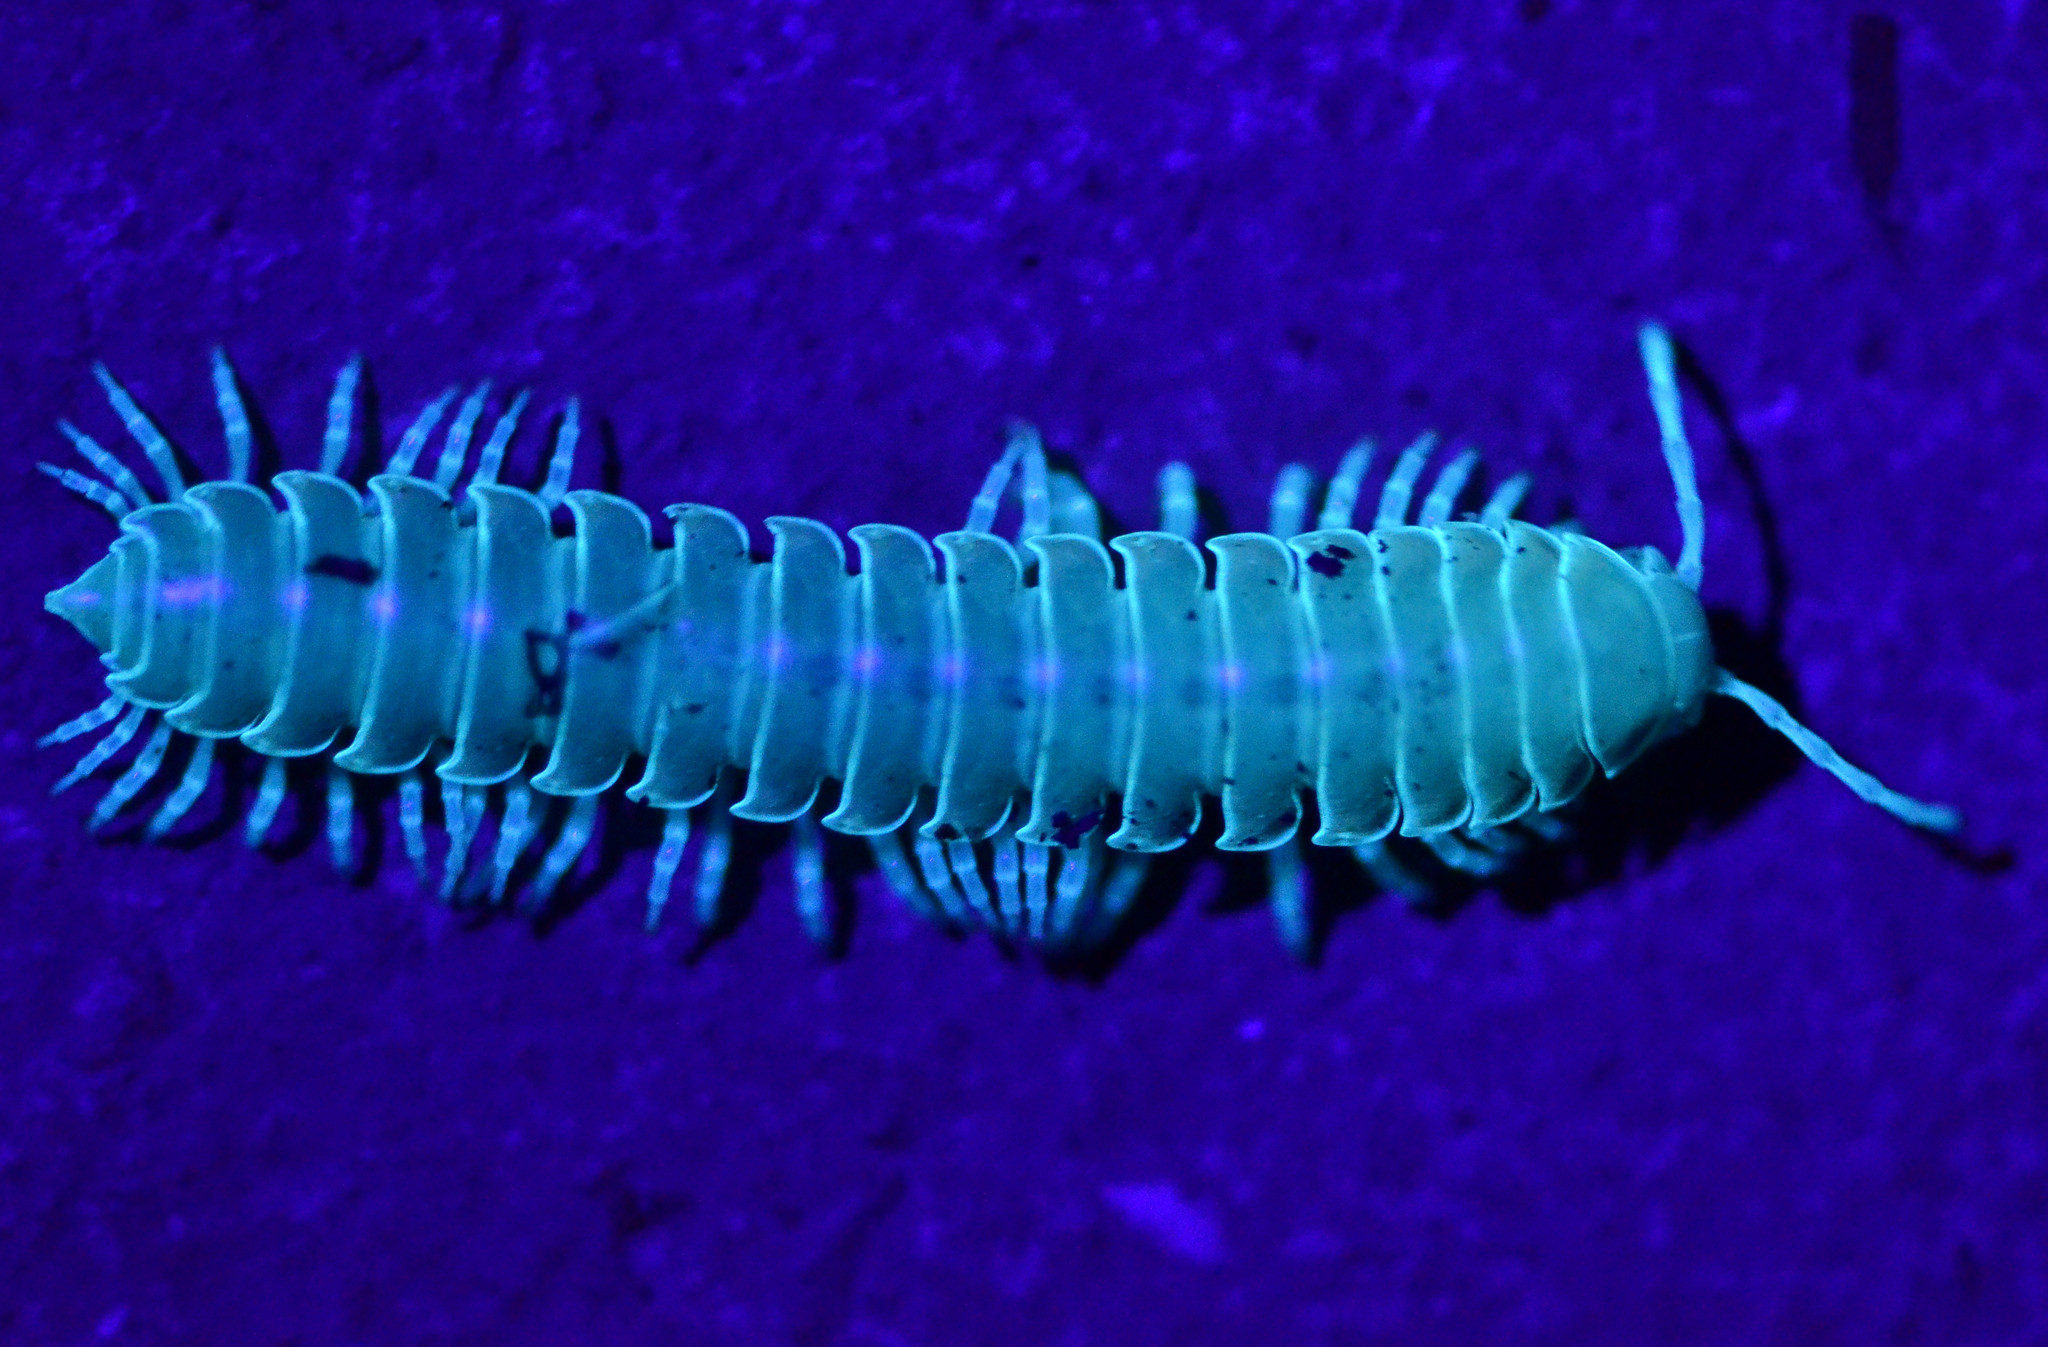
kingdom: Animalia
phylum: Arthropoda
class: Diplopoda
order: Polydesmida
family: Xystodesmidae
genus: Xystocheir
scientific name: Xystocheir dissecta
